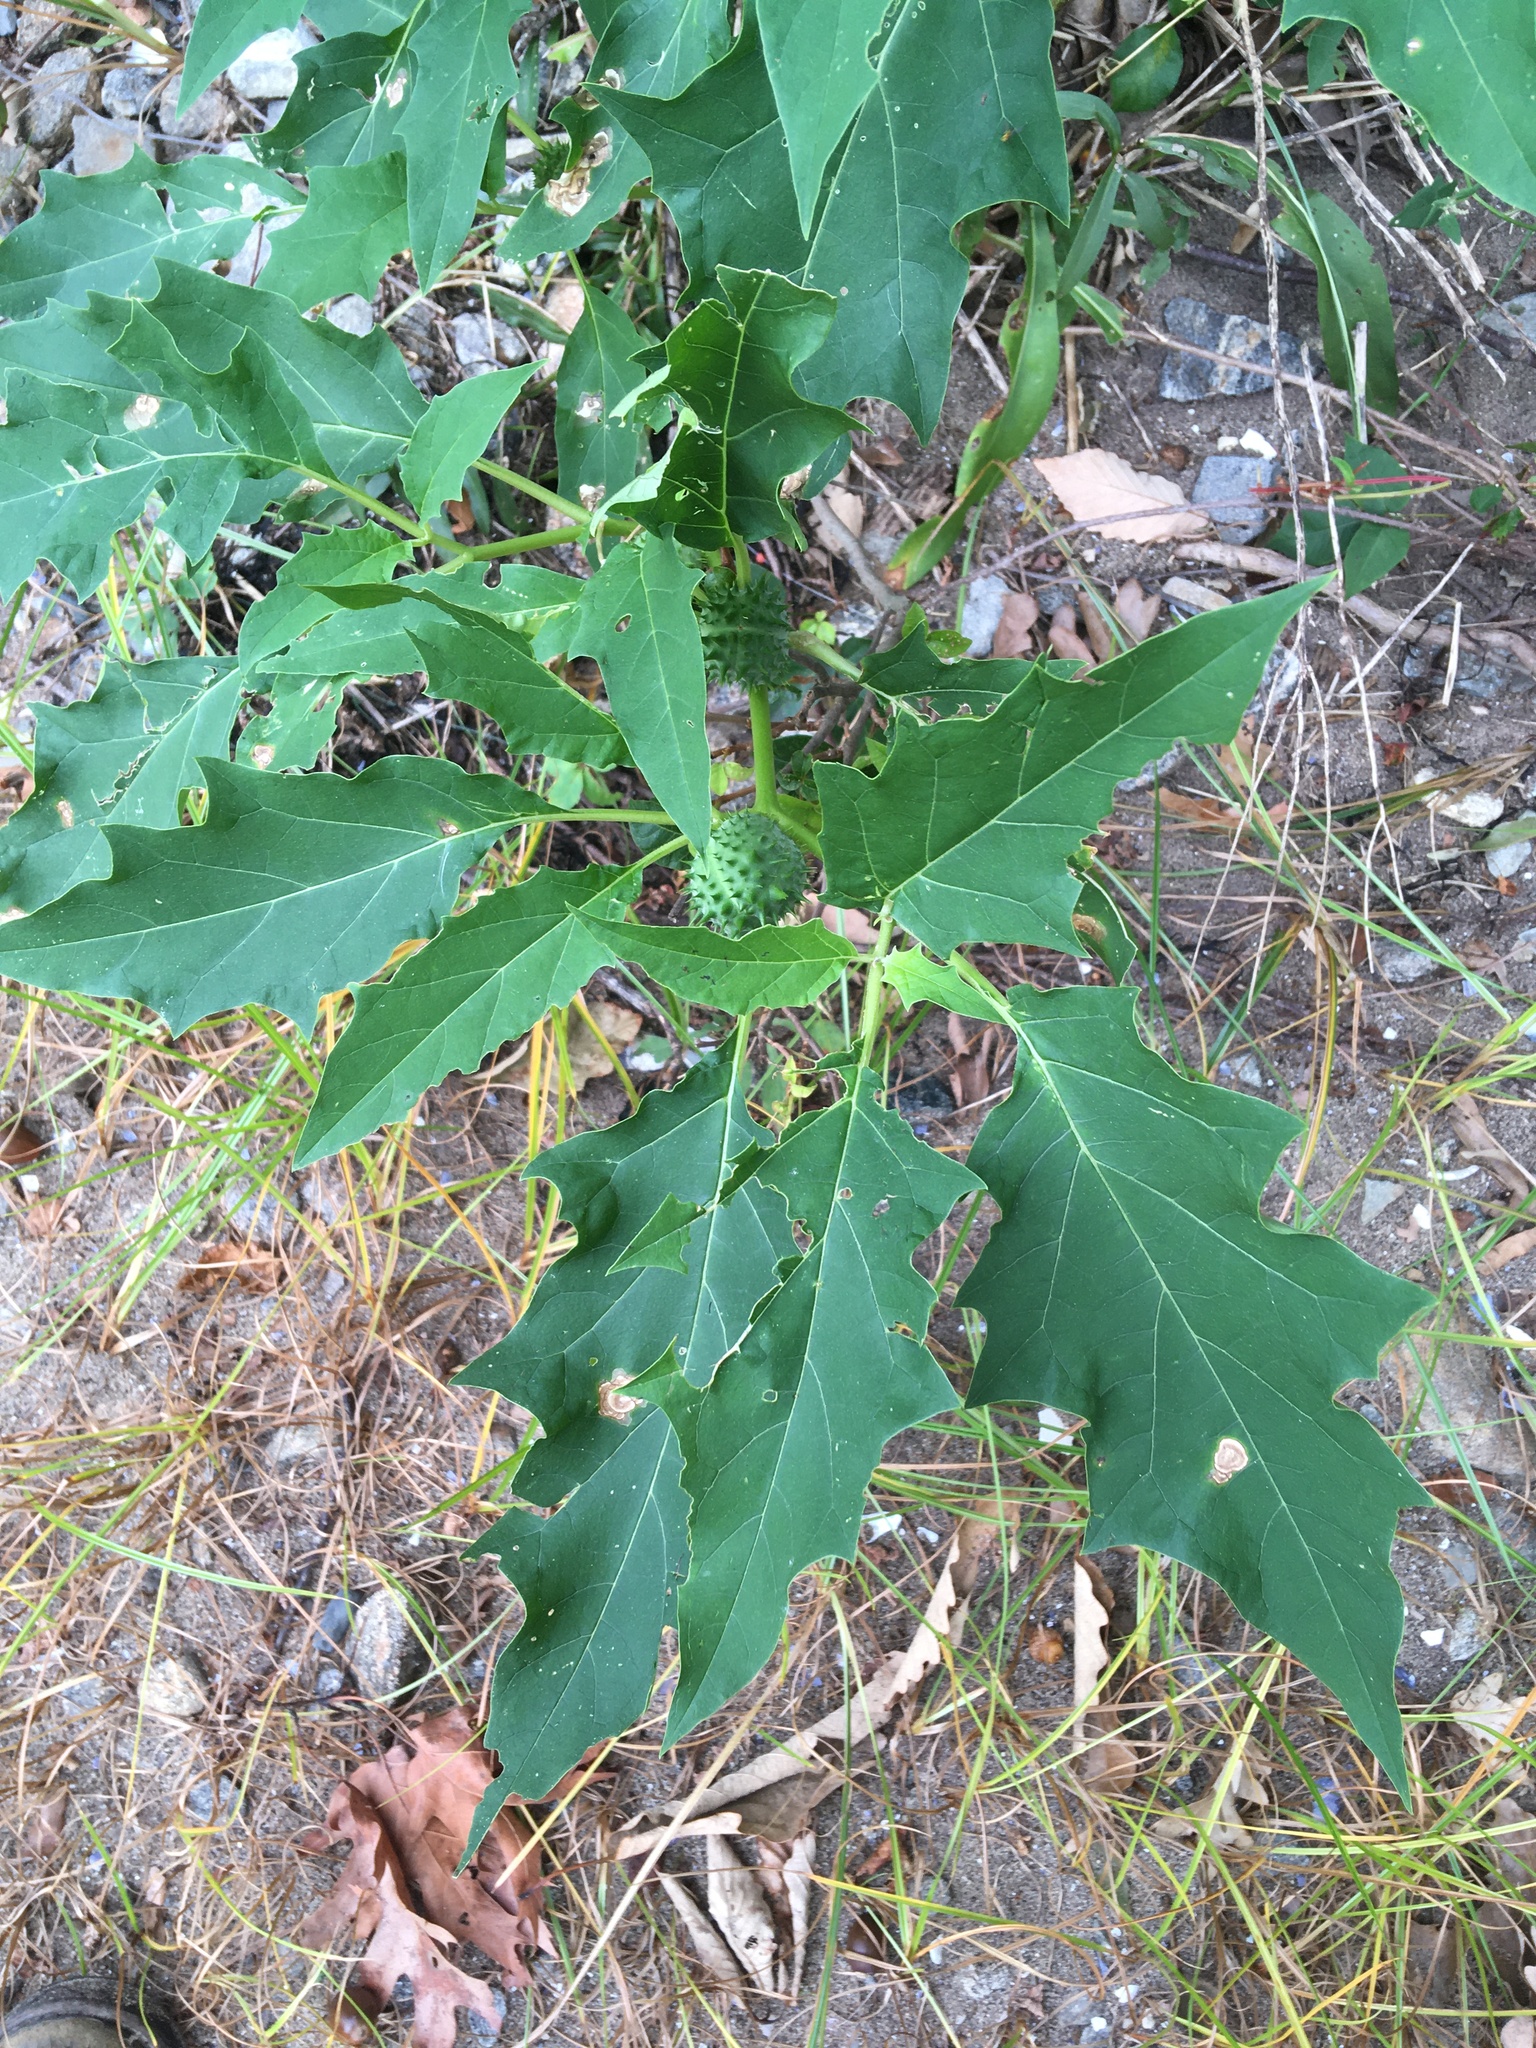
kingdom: Plantae
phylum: Tracheophyta
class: Magnoliopsida
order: Solanales
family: Solanaceae
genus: Datura
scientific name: Datura stramonium
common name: Thorn-apple
